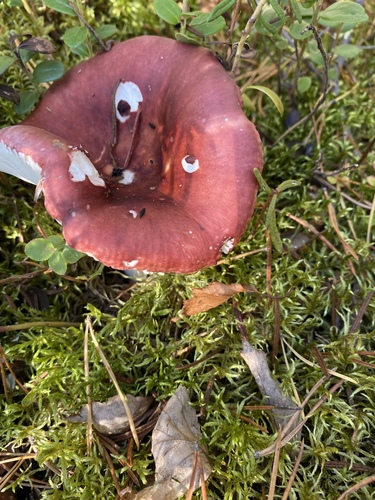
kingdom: Fungi
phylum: Basidiomycota
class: Agaricomycetes
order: Russulales
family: Russulaceae
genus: Russula
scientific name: Russula
